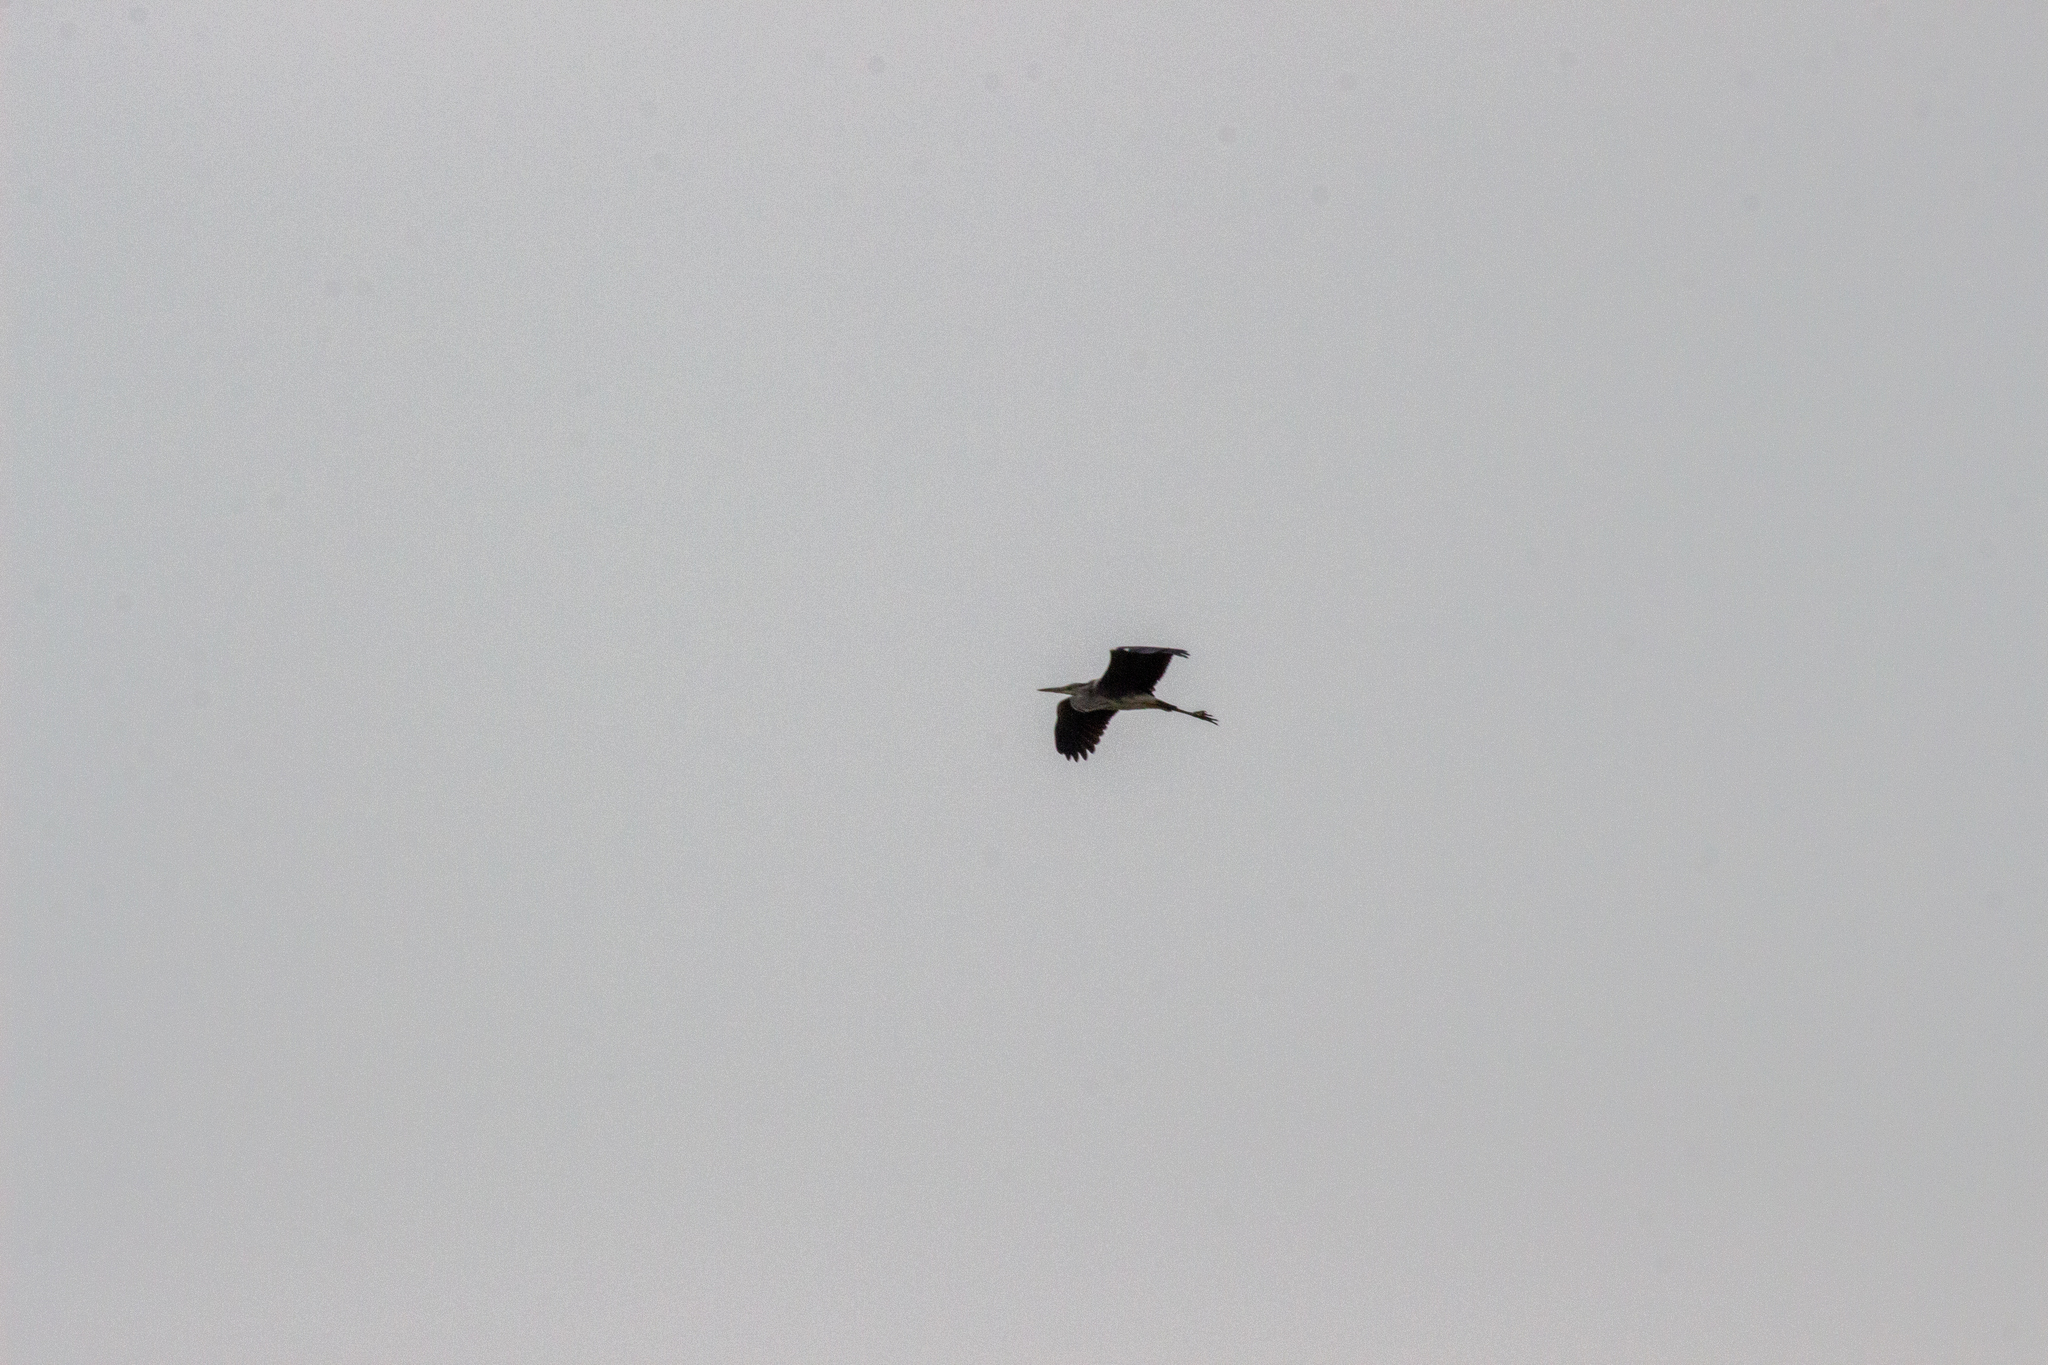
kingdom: Animalia
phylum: Chordata
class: Aves
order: Pelecaniformes
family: Ardeidae
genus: Ardea
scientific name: Ardea cinerea
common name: Grey heron
